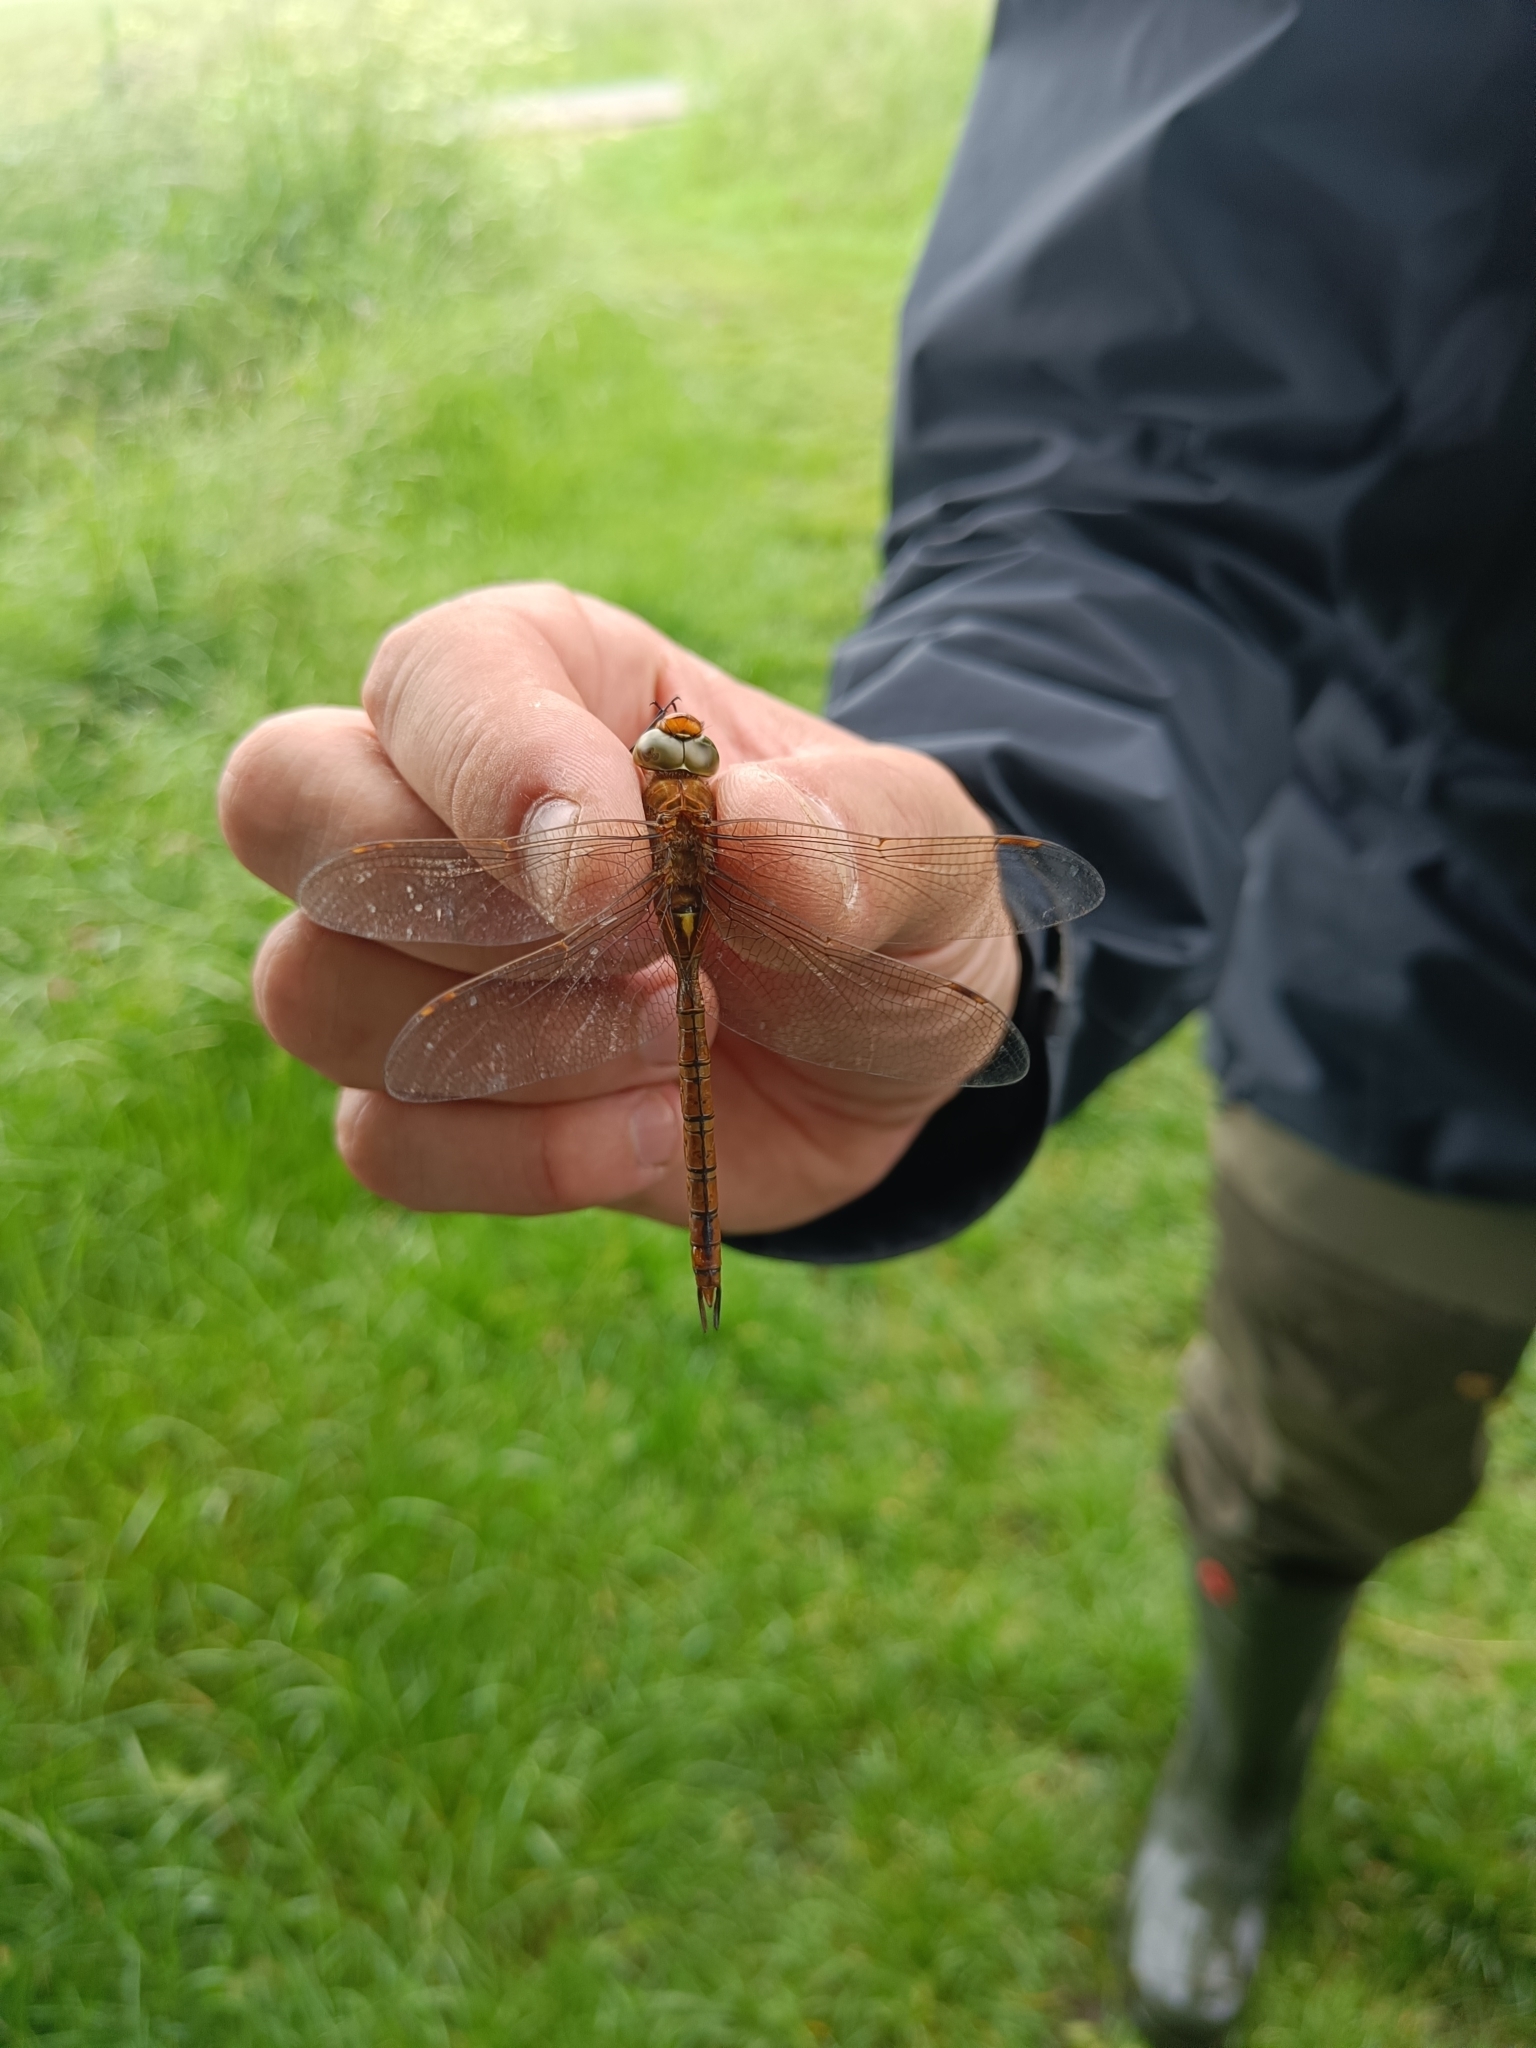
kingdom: Animalia
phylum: Arthropoda
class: Insecta
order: Odonata
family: Aeshnidae
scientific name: Aeshnidae
